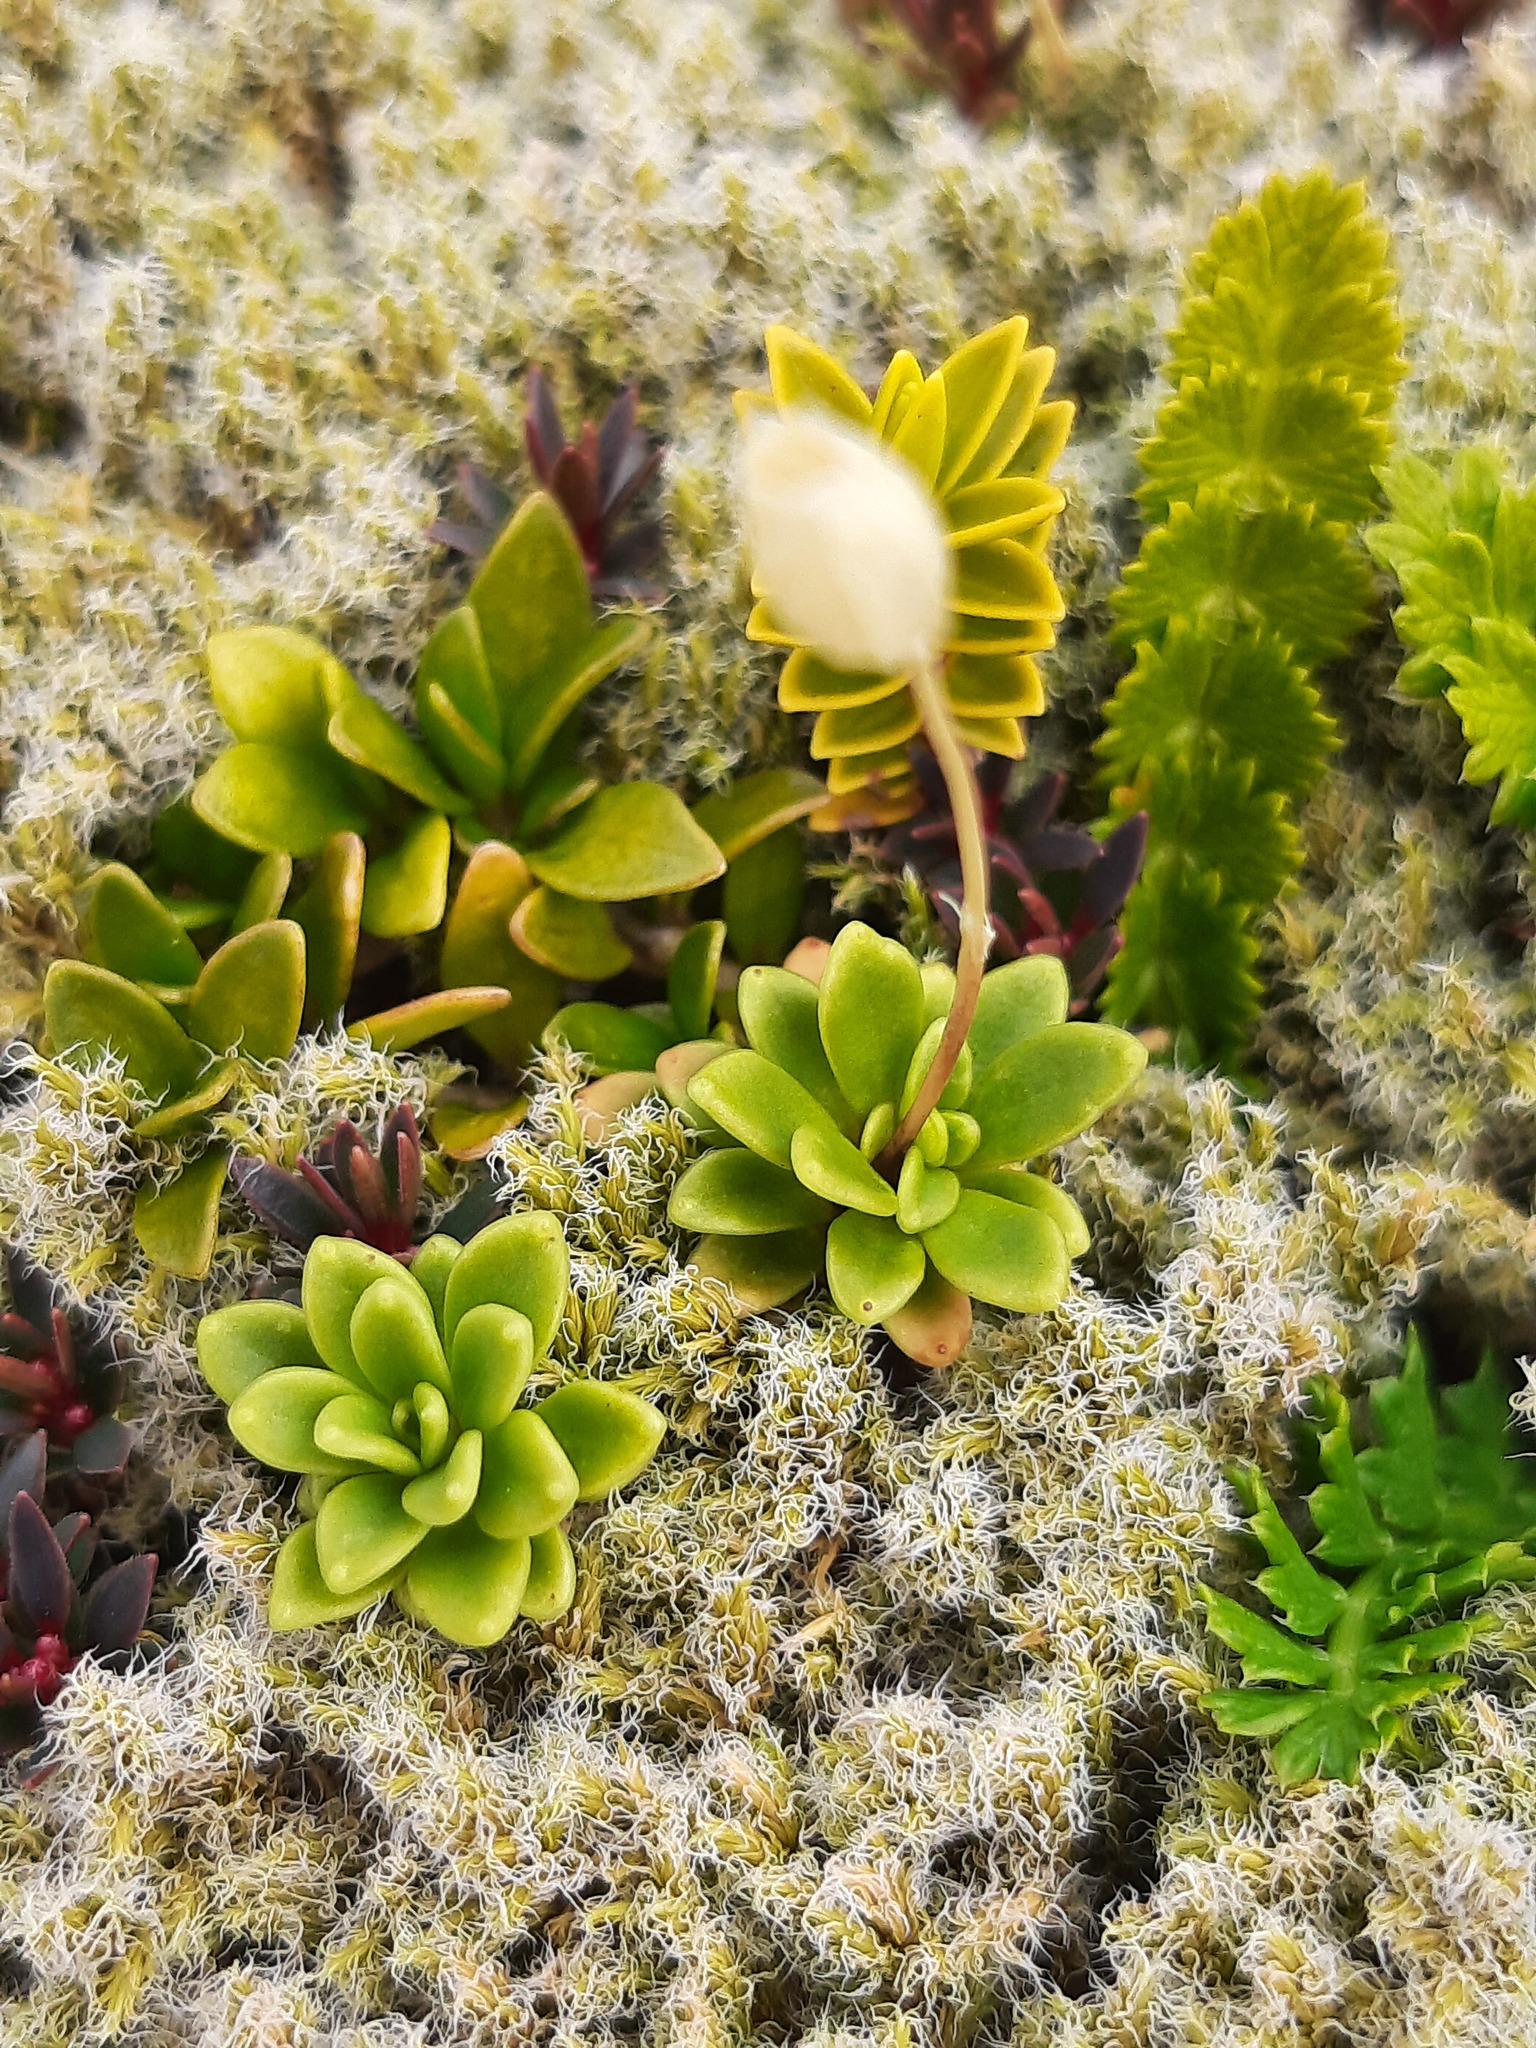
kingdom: Plantae
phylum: Tracheophyta
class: Magnoliopsida
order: Asterales
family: Stylidiaceae
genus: Forstera
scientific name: Forstera tenella
